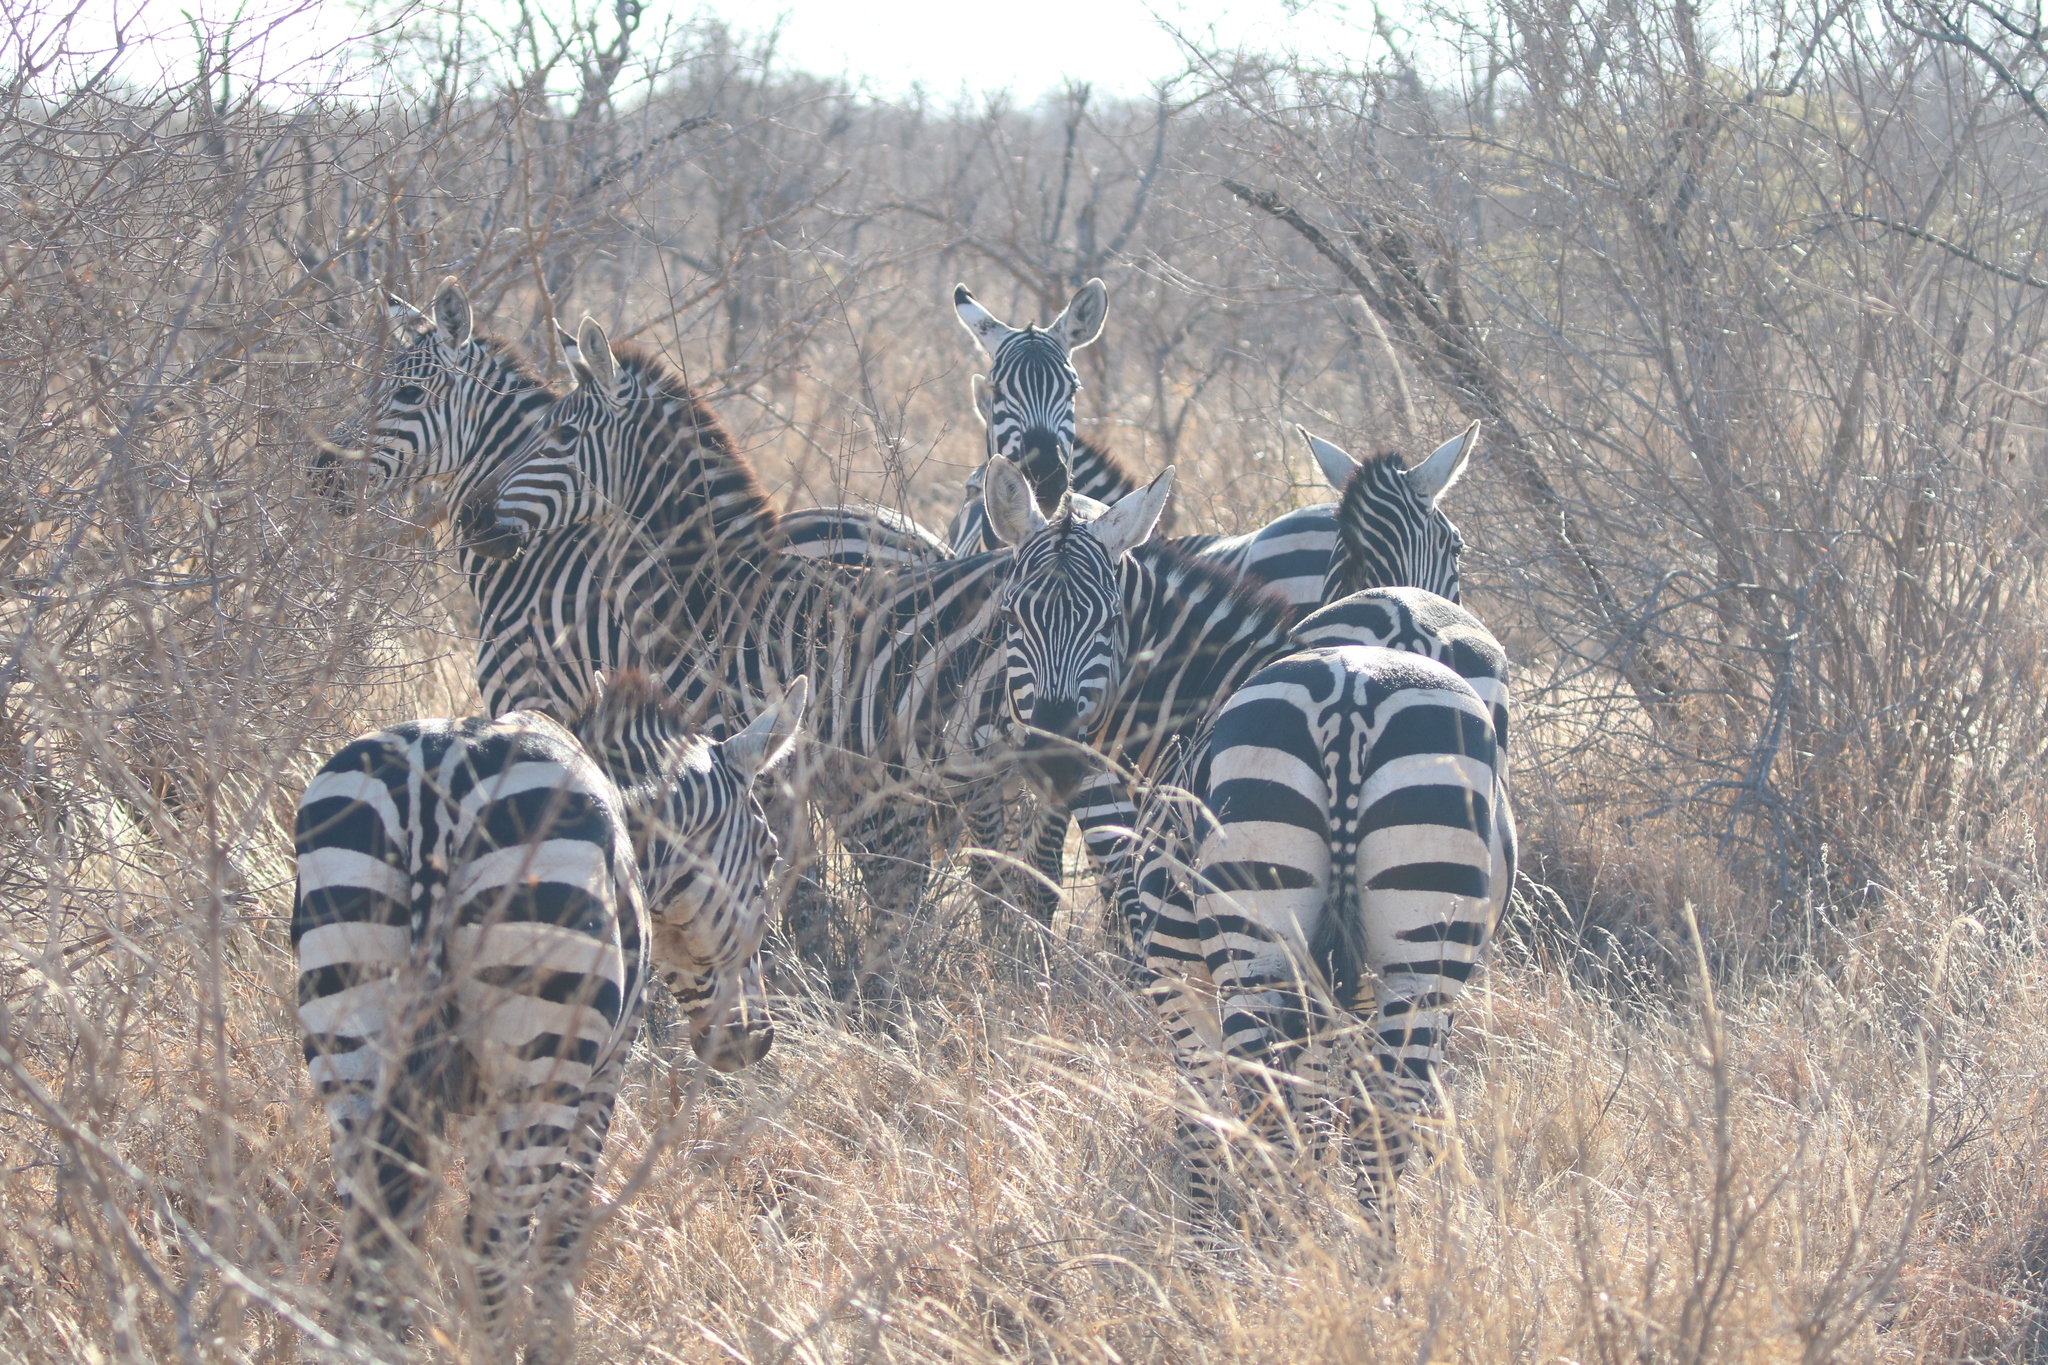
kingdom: Animalia
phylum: Chordata
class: Mammalia
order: Perissodactyla
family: Equidae
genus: Equus
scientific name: Equus quagga
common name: Plains zebra
